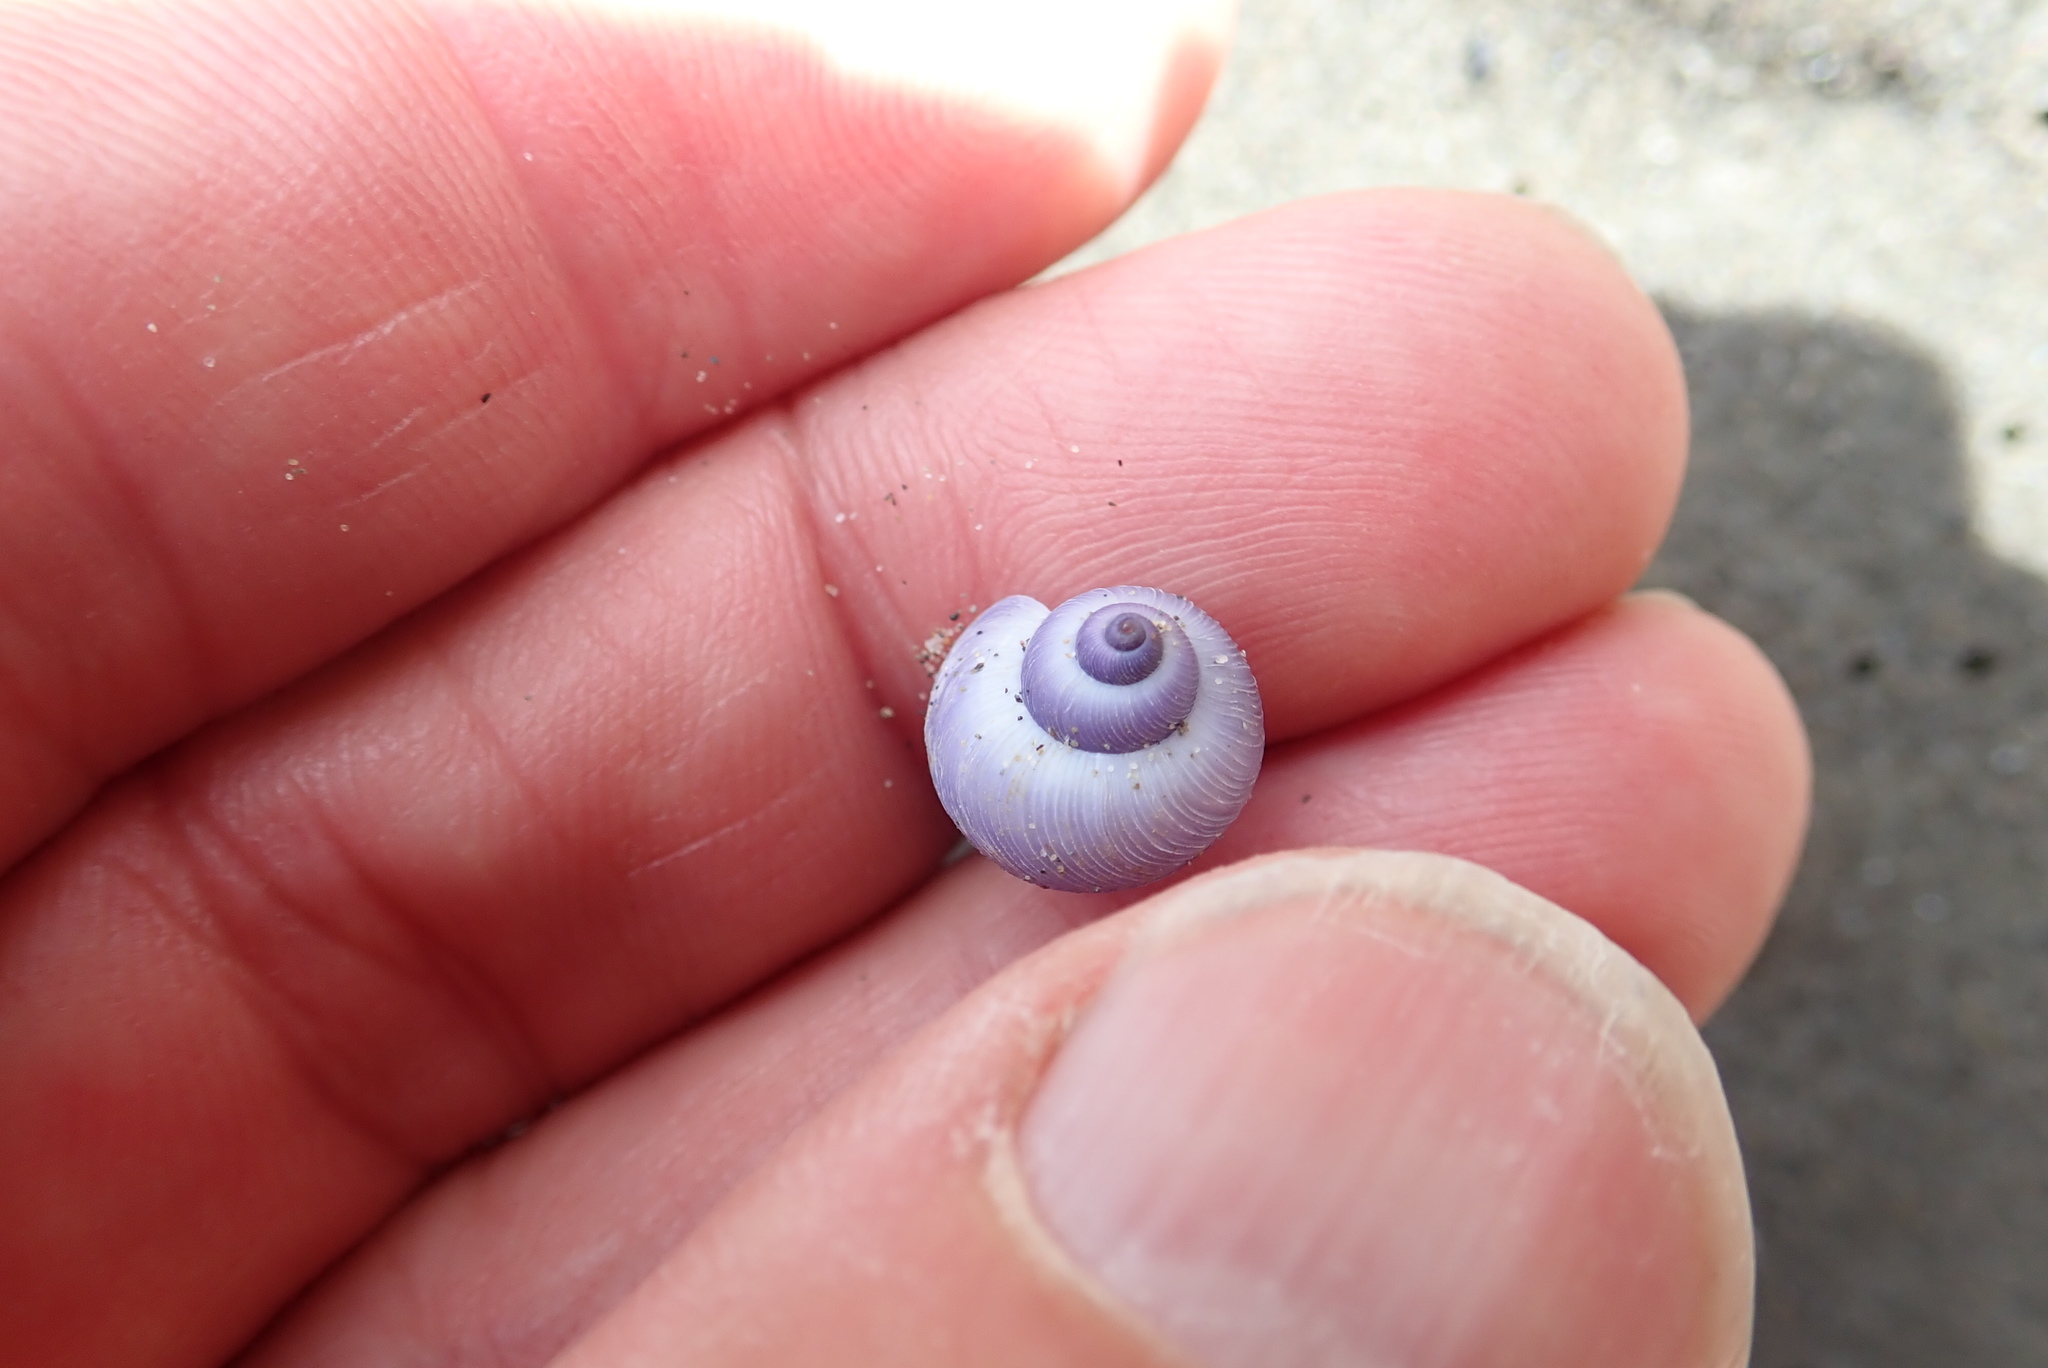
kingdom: Animalia
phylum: Mollusca
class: Gastropoda
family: Epitoniidae
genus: Janthina
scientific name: Janthina exigua
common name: Dwarf janthina
